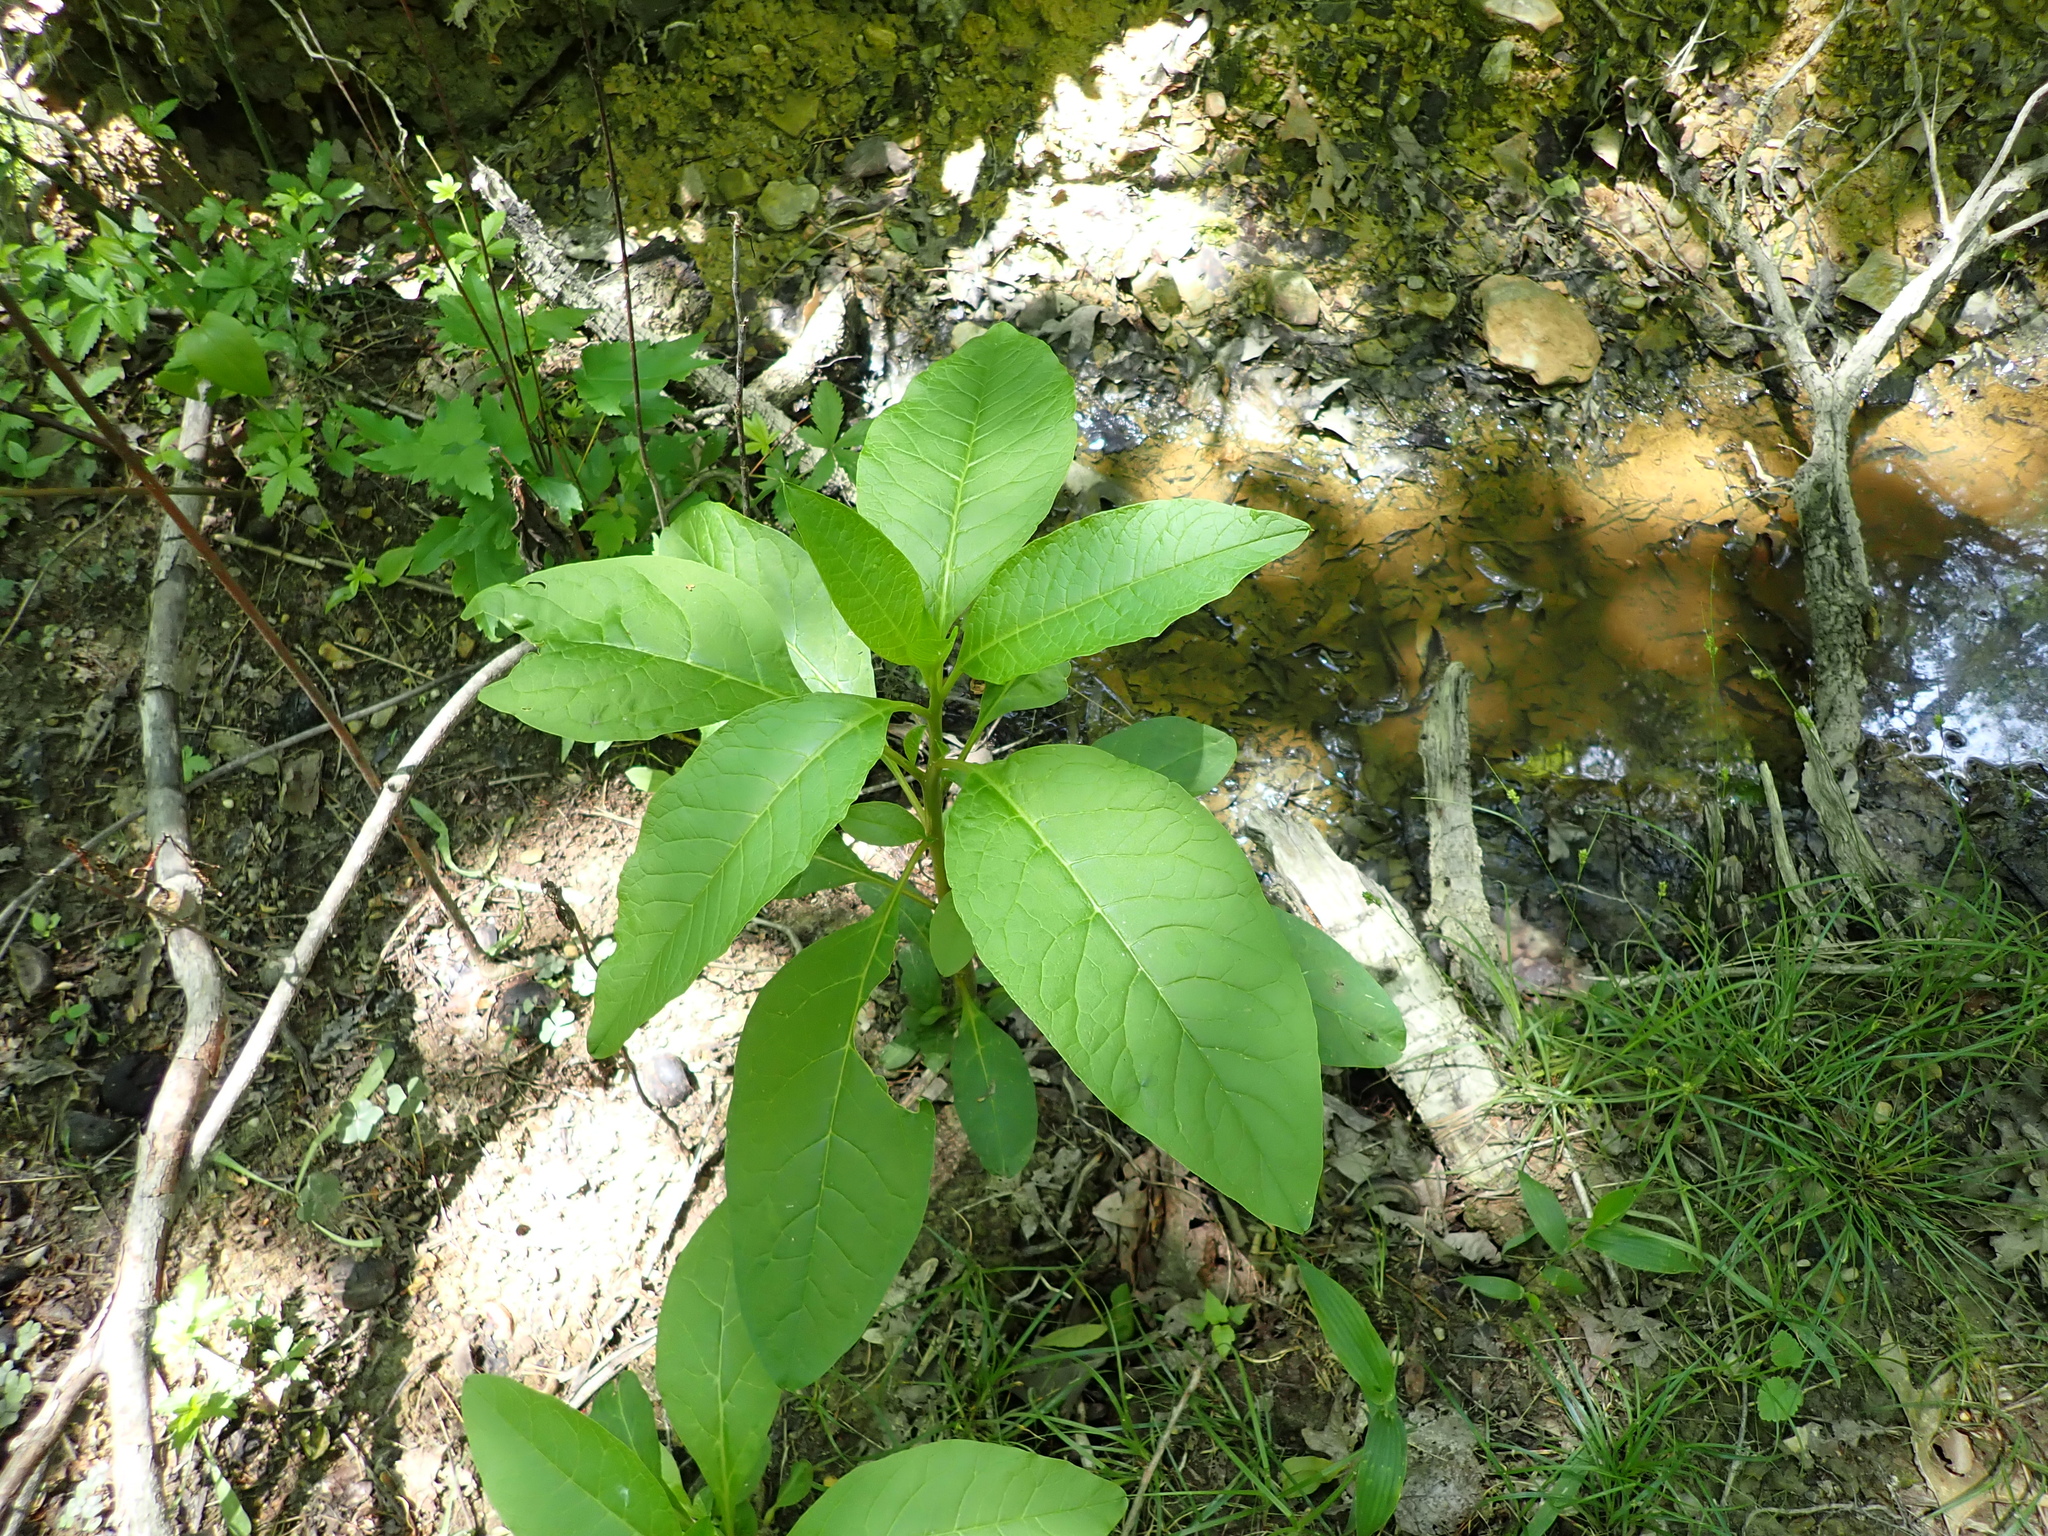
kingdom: Plantae
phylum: Tracheophyta
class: Magnoliopsida
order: Caryophyllales
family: Phytolaccaceae
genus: Phytolacca
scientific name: Phytolacca americana
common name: American pokeweed
